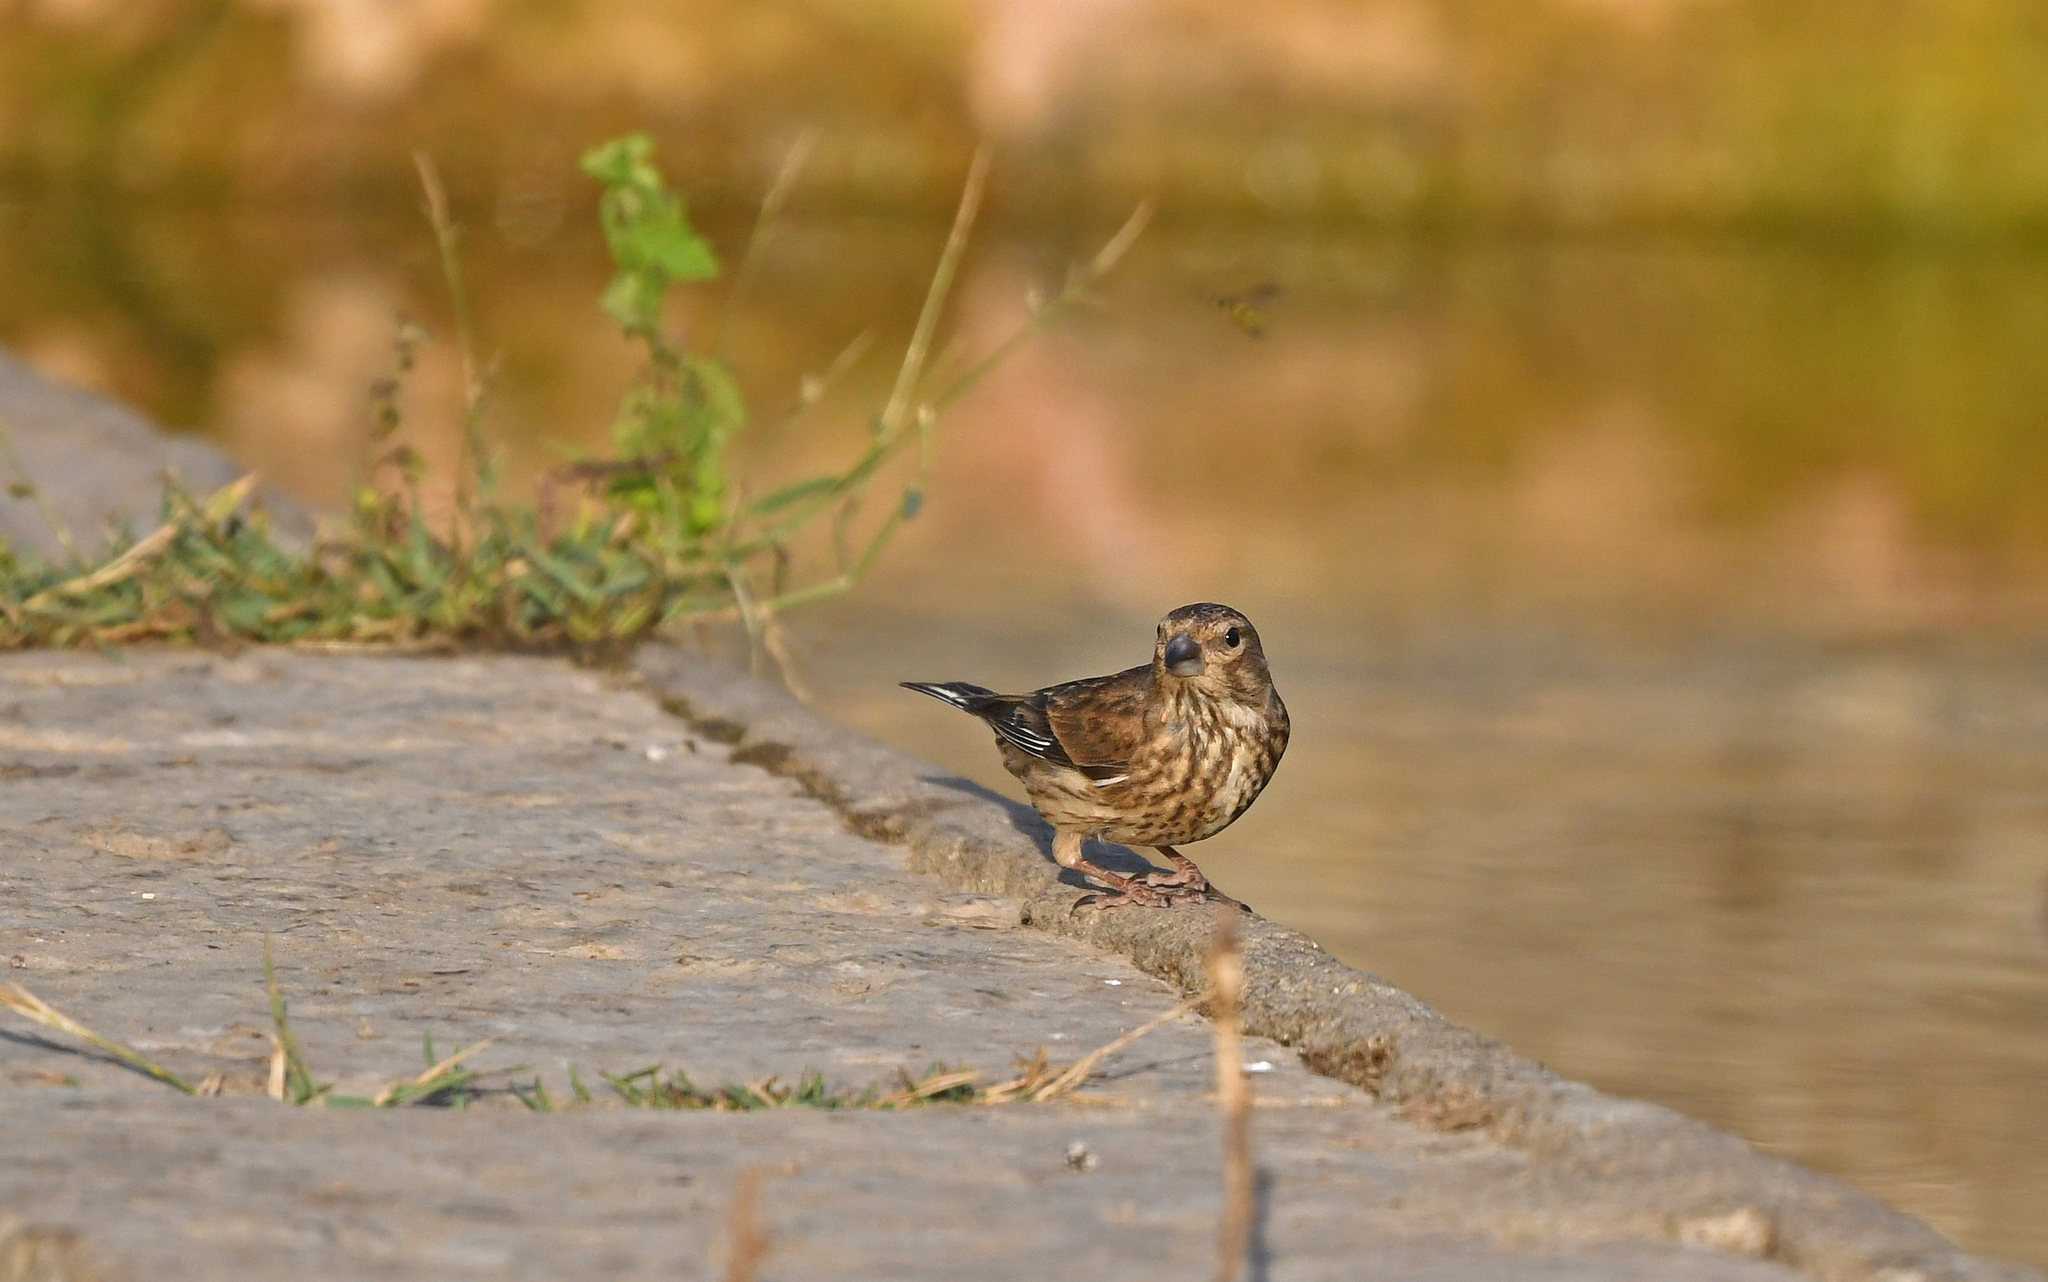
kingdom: Animalia
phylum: Chordata
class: Aves
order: Passeriformes
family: Fringillidae
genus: Linaria
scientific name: Linaria cannabina
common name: Common linnet
